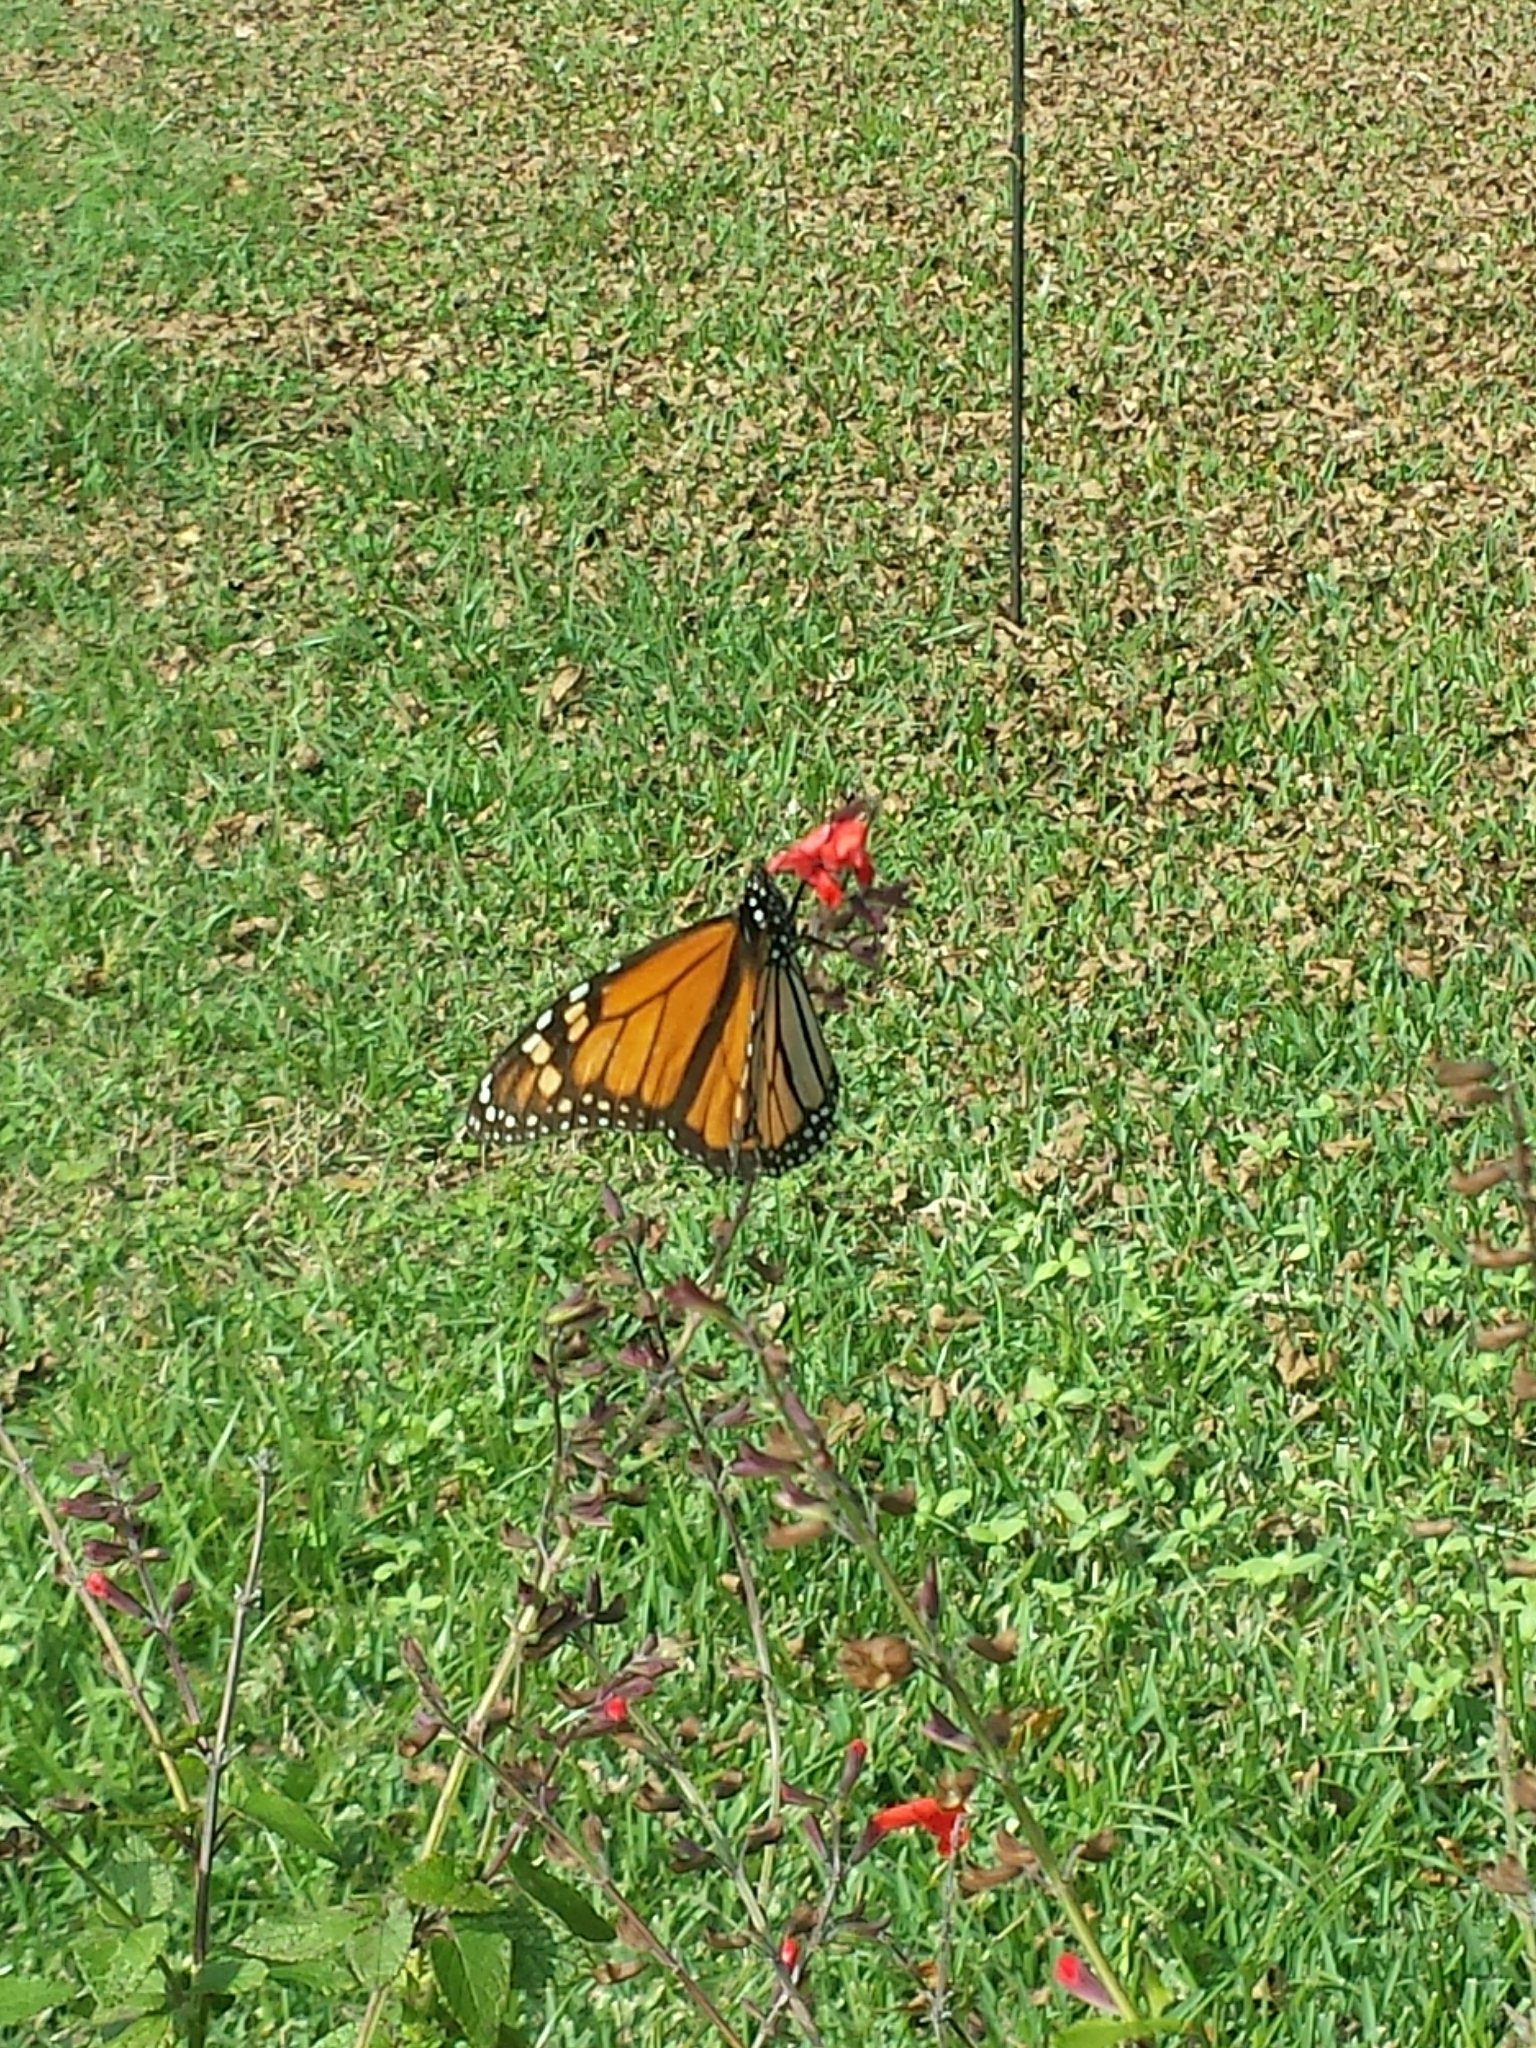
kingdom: Animalia
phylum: Arthropoda
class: Insecta
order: Lepidoptera
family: Nymphalidae
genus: Danaus
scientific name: Danaus plexippus
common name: Monarch
